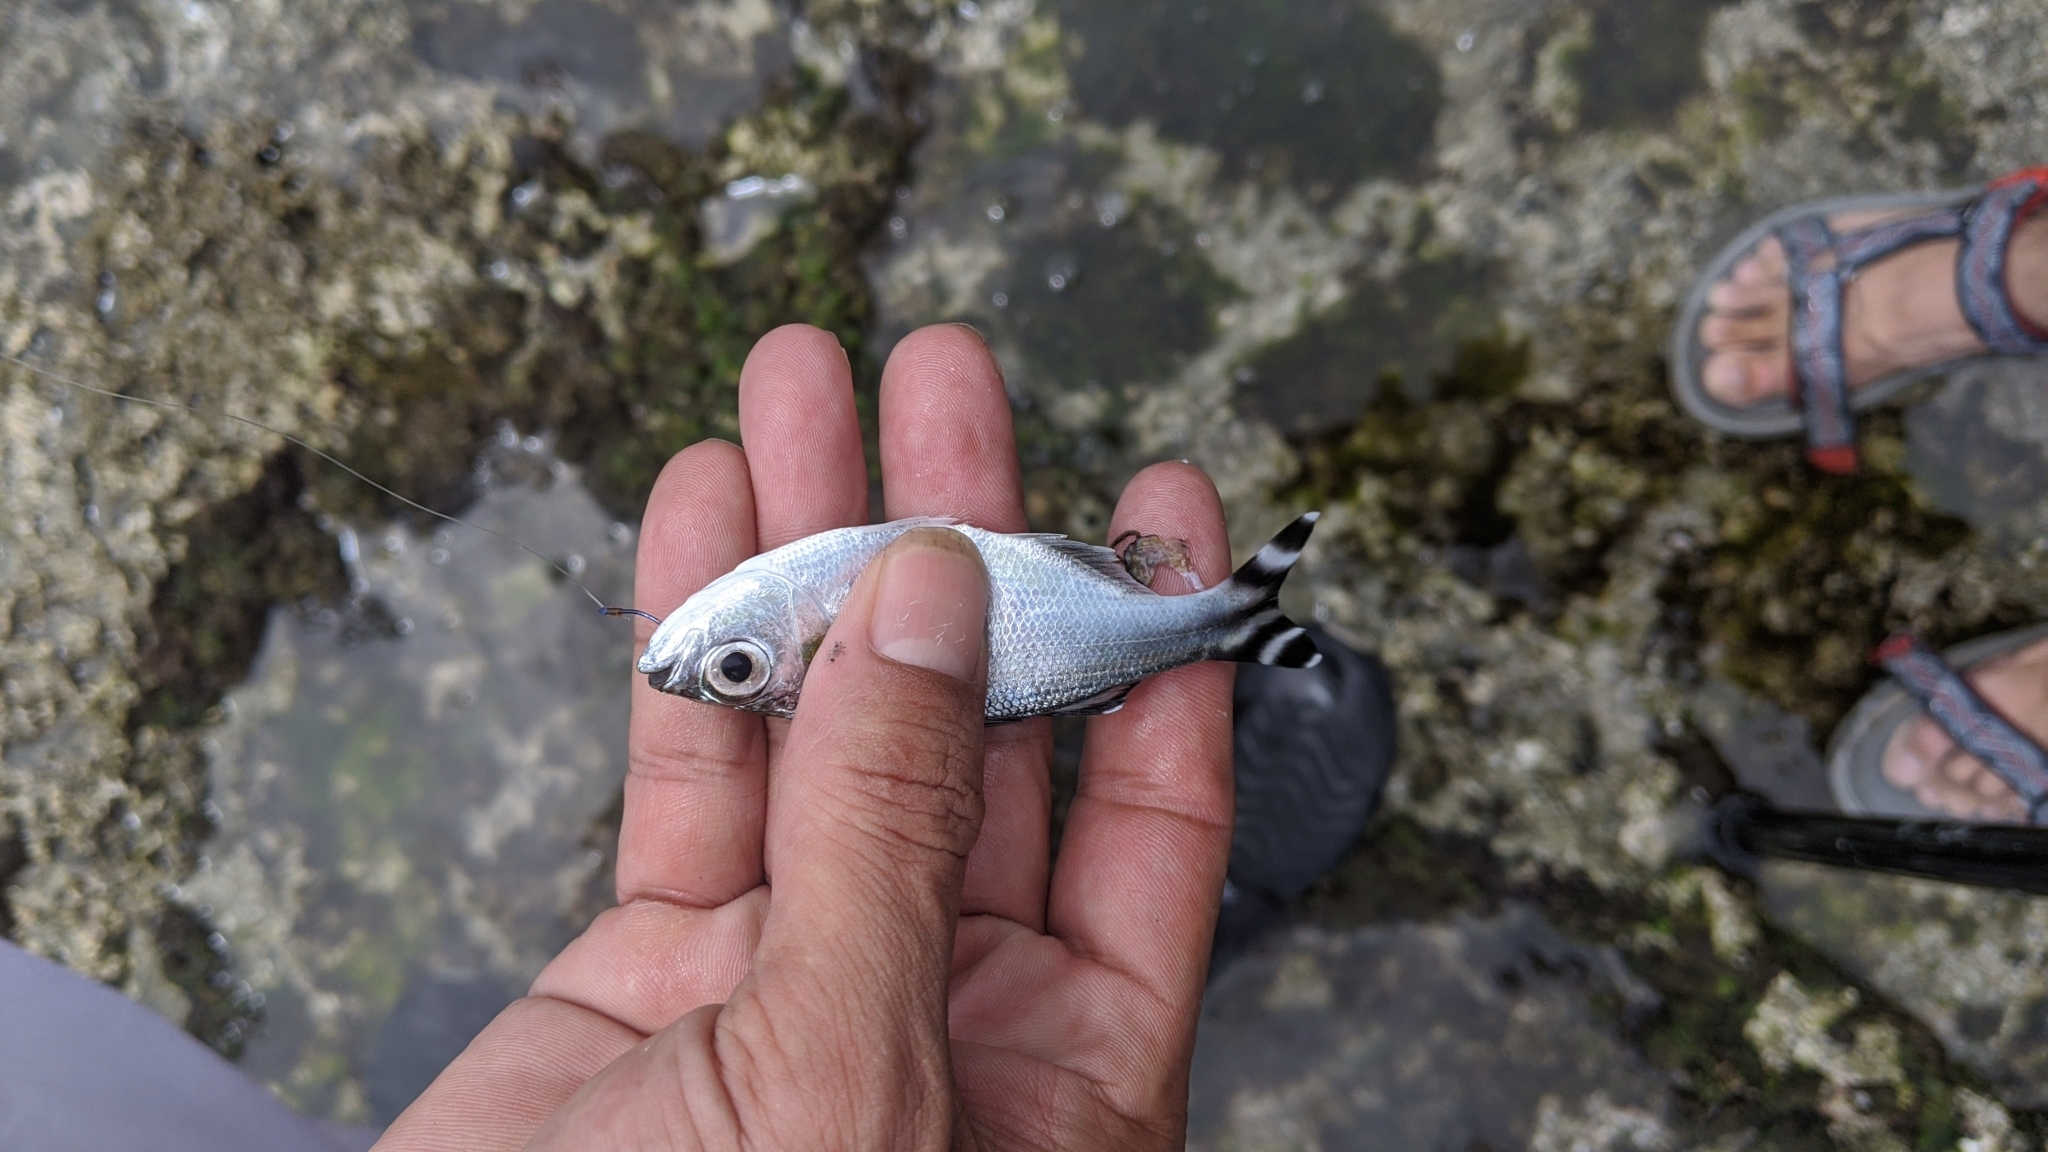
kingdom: Animalia
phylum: Chordata
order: Perciformes
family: Kuhliidae
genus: Kuhlia
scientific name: Kuhlia mugil
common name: Barred flagtail
